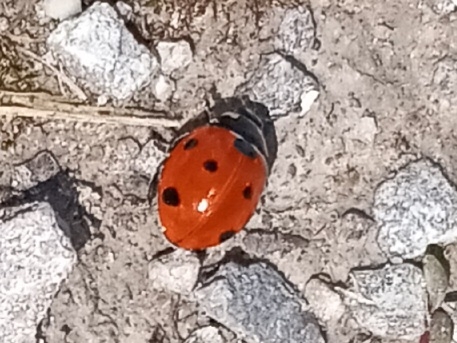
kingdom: Animalia
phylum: Arthropoda
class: Insecta
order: Coleoptera
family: Coccinellidae
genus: Coccinella
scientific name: Coccinella septempunctata
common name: Sevenspotted lady beetle
